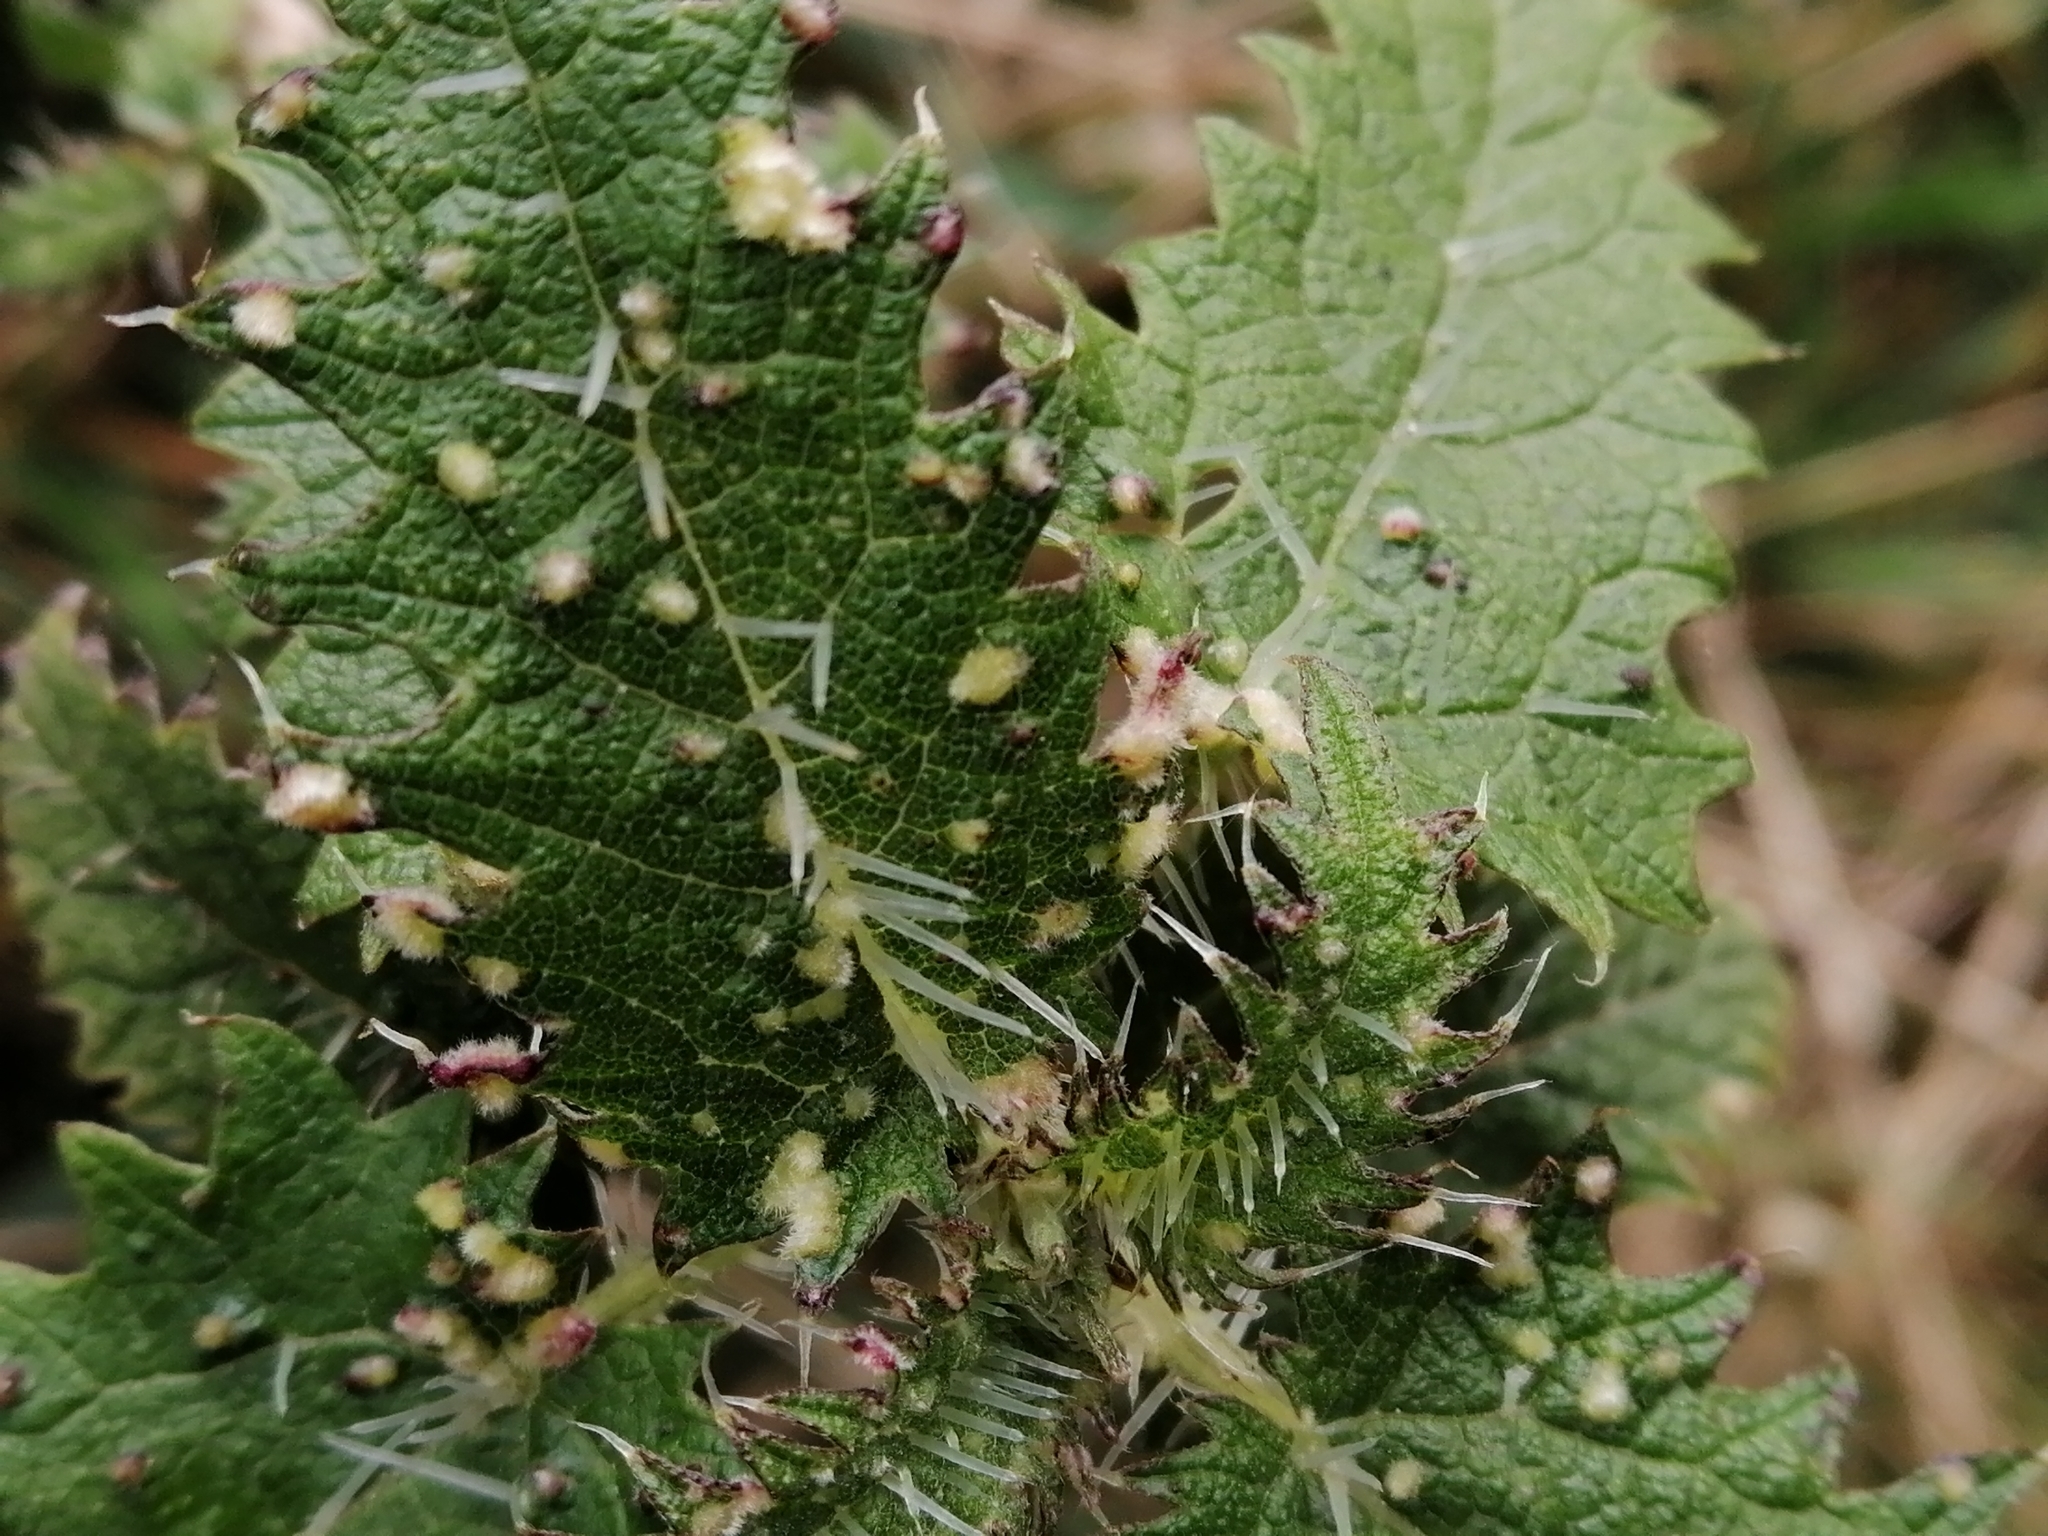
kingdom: Plantae
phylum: Tracheophyta
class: Magnoliopsida
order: Rosales
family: Urticaceae
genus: Urtica
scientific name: Urtica ferox
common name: Tree nettle
